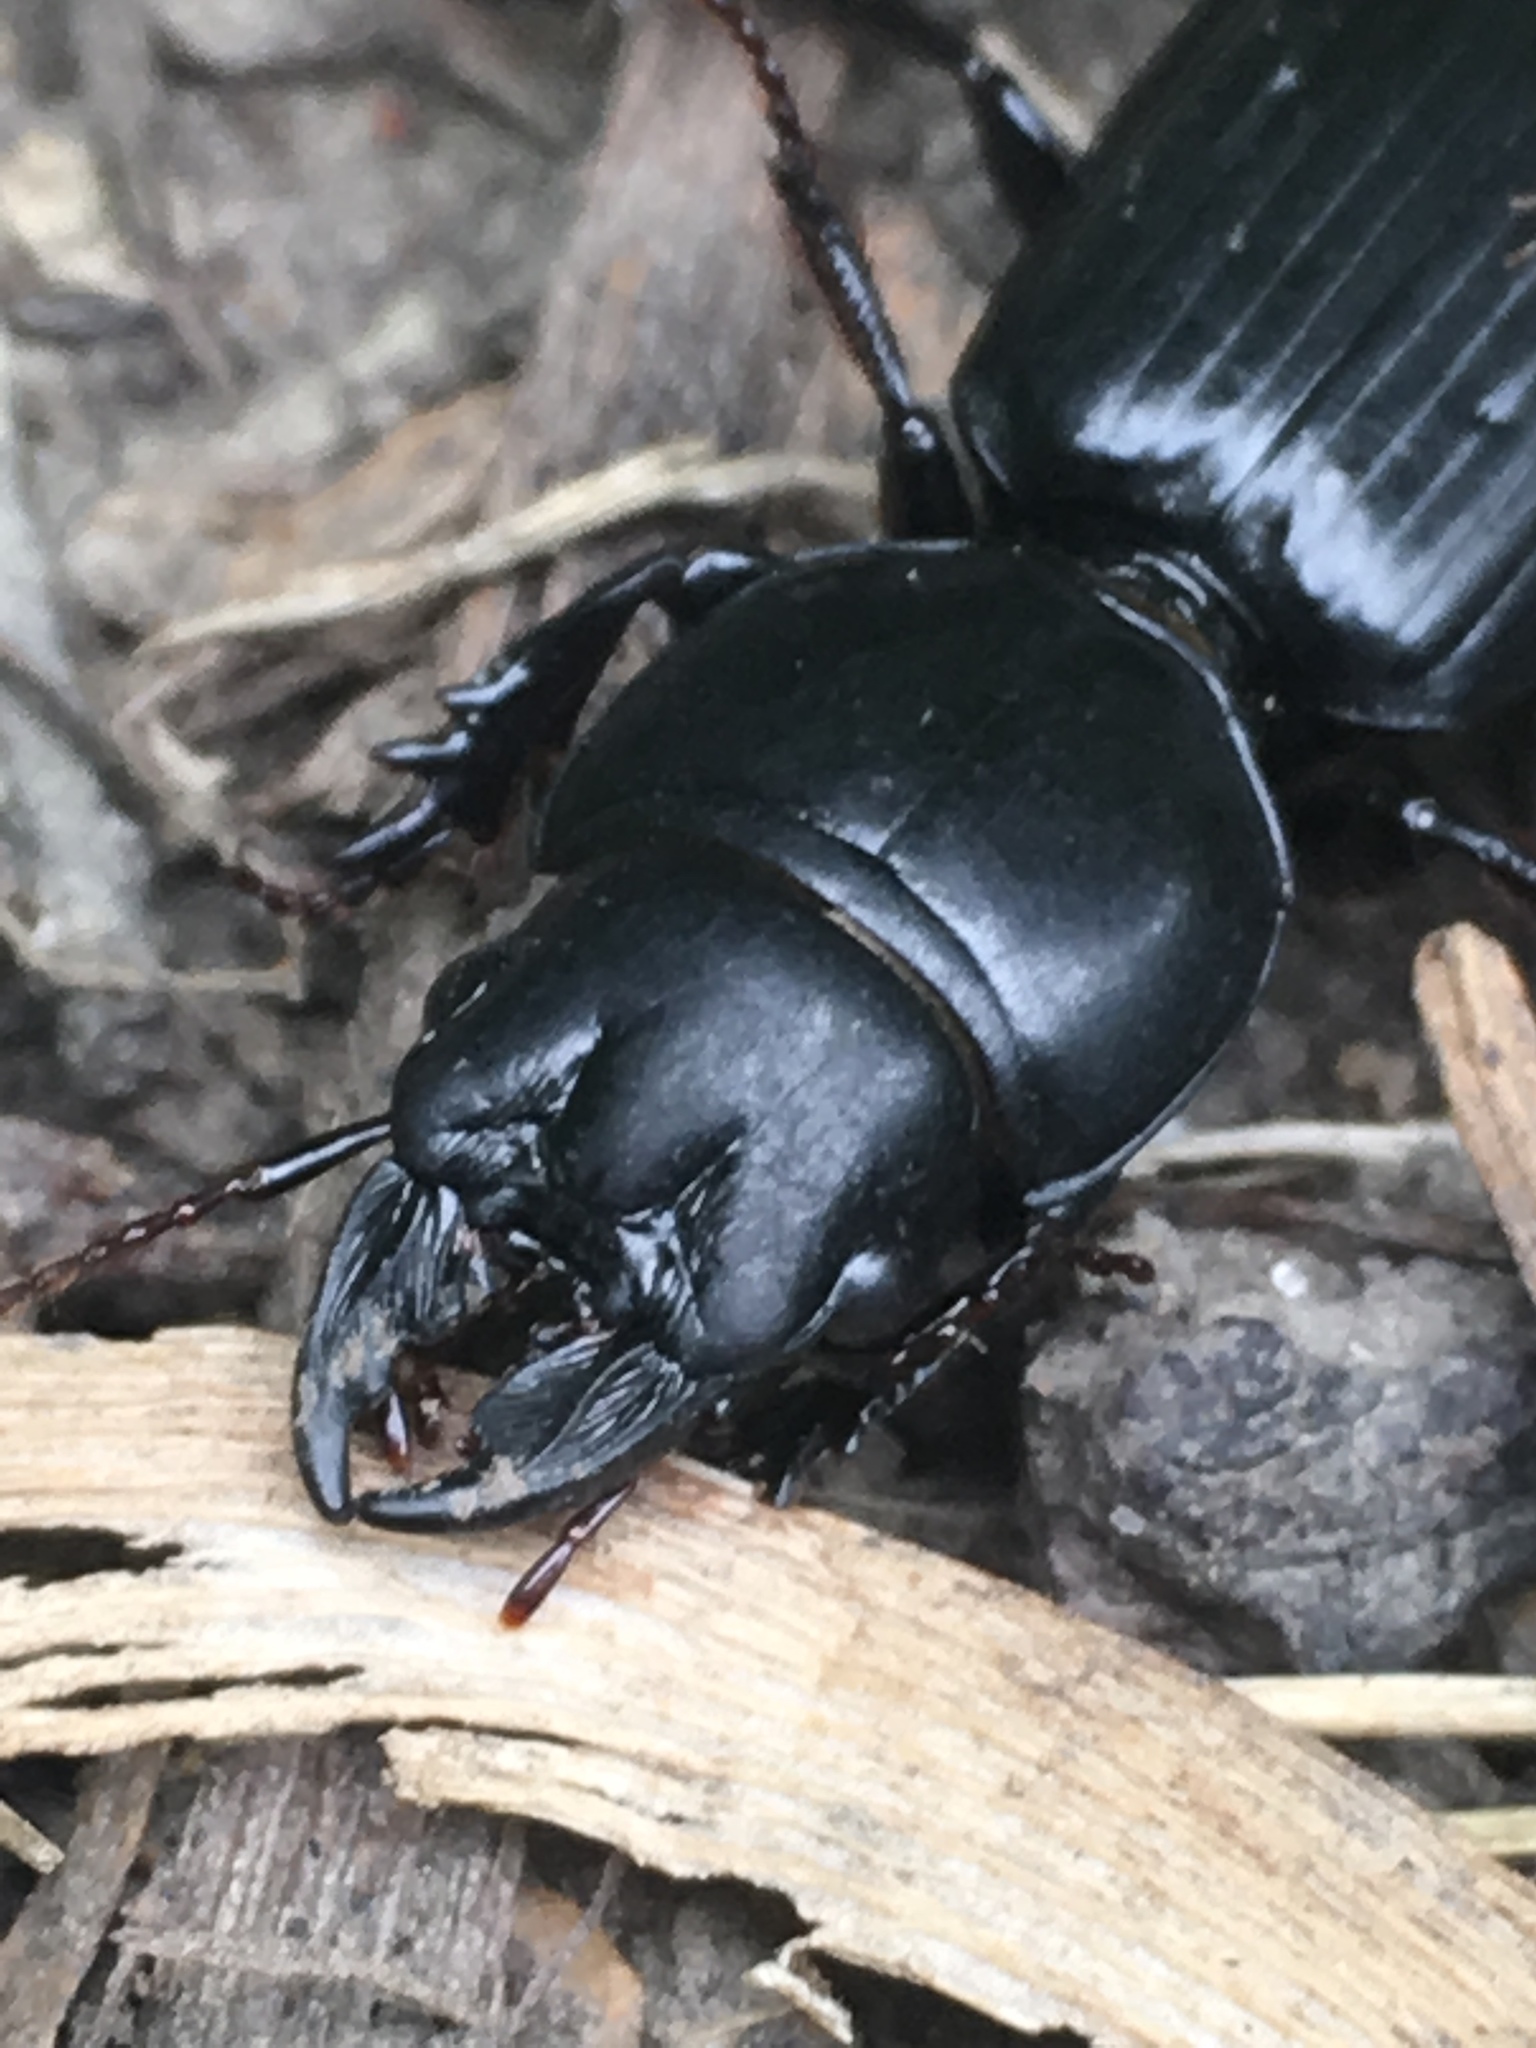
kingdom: Animalia
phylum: Arthropoda
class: Insecta
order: Coleoptera
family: Carabidae
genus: Scarites
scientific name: Scarites subterraneus
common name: Big-headed ground beetle
